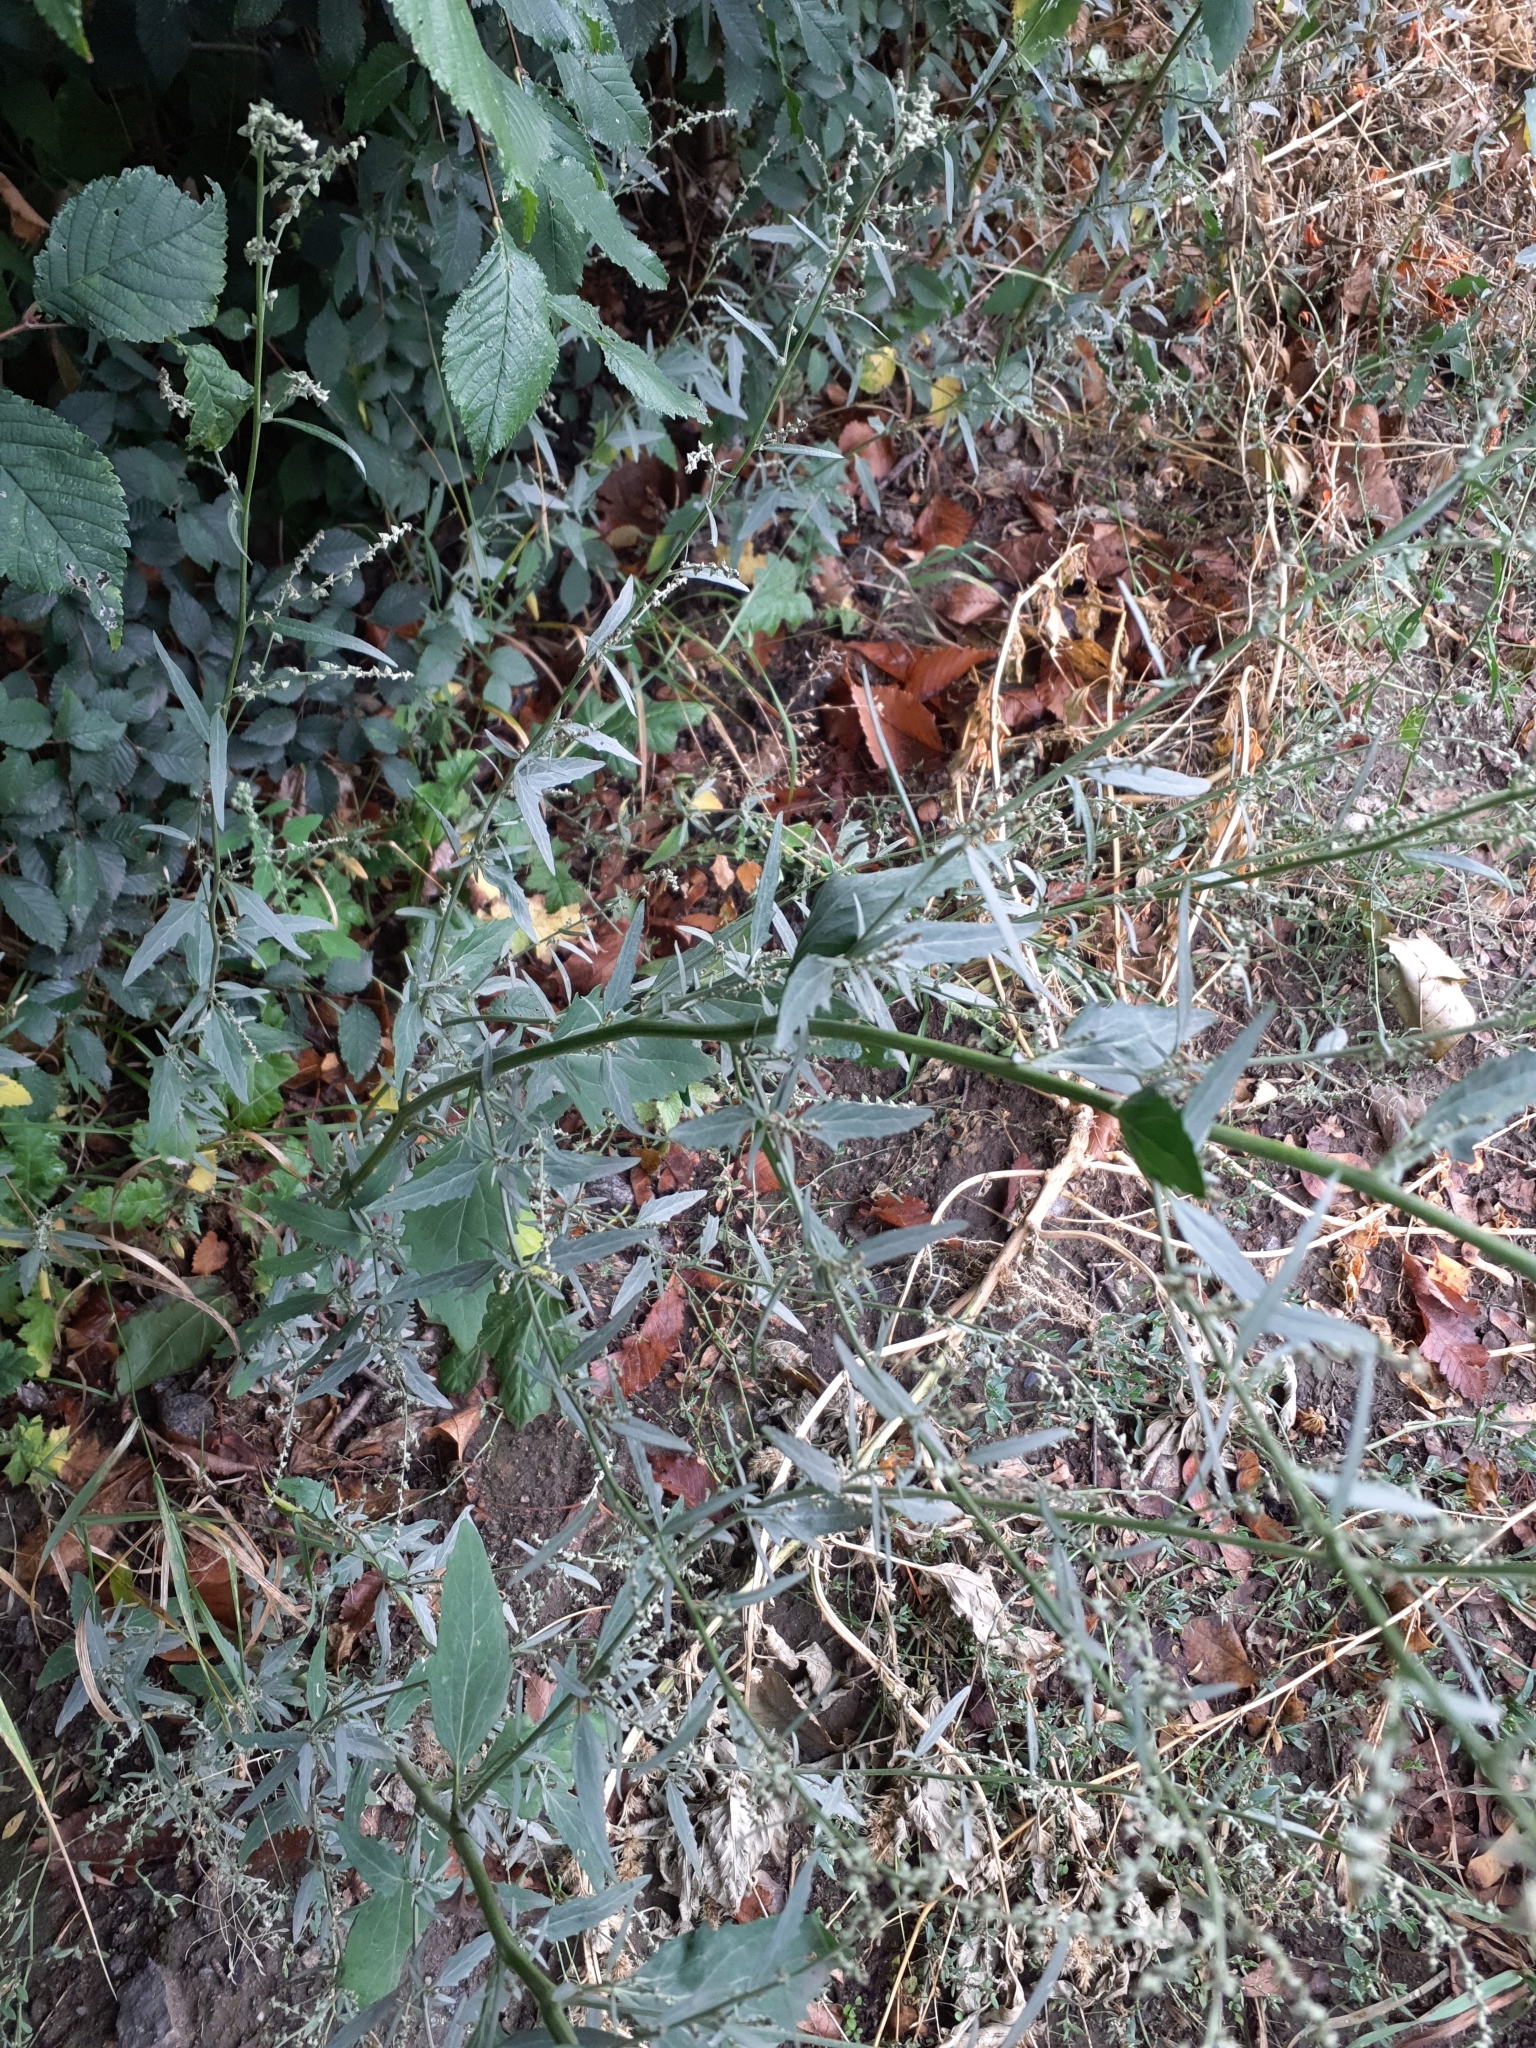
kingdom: Plantae
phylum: Tracheophyta
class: Magnoliopsida
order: Caryophyllales
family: Amaranthaceae
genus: Atriplex
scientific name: Atriplex oblongifolia
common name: Oblongleaf orache
